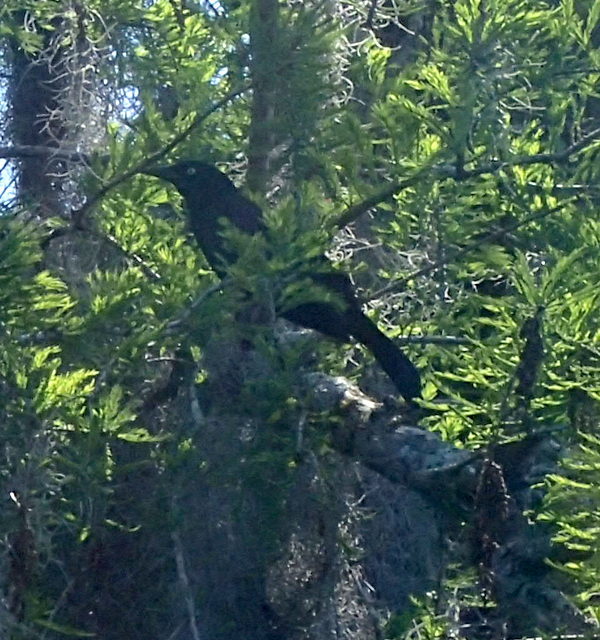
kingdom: Animalia
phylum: Chordata
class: Aves
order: Passeriformes
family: Icteridae
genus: Quiscalus
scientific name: Quiscalus quiscula
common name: Common grackle
